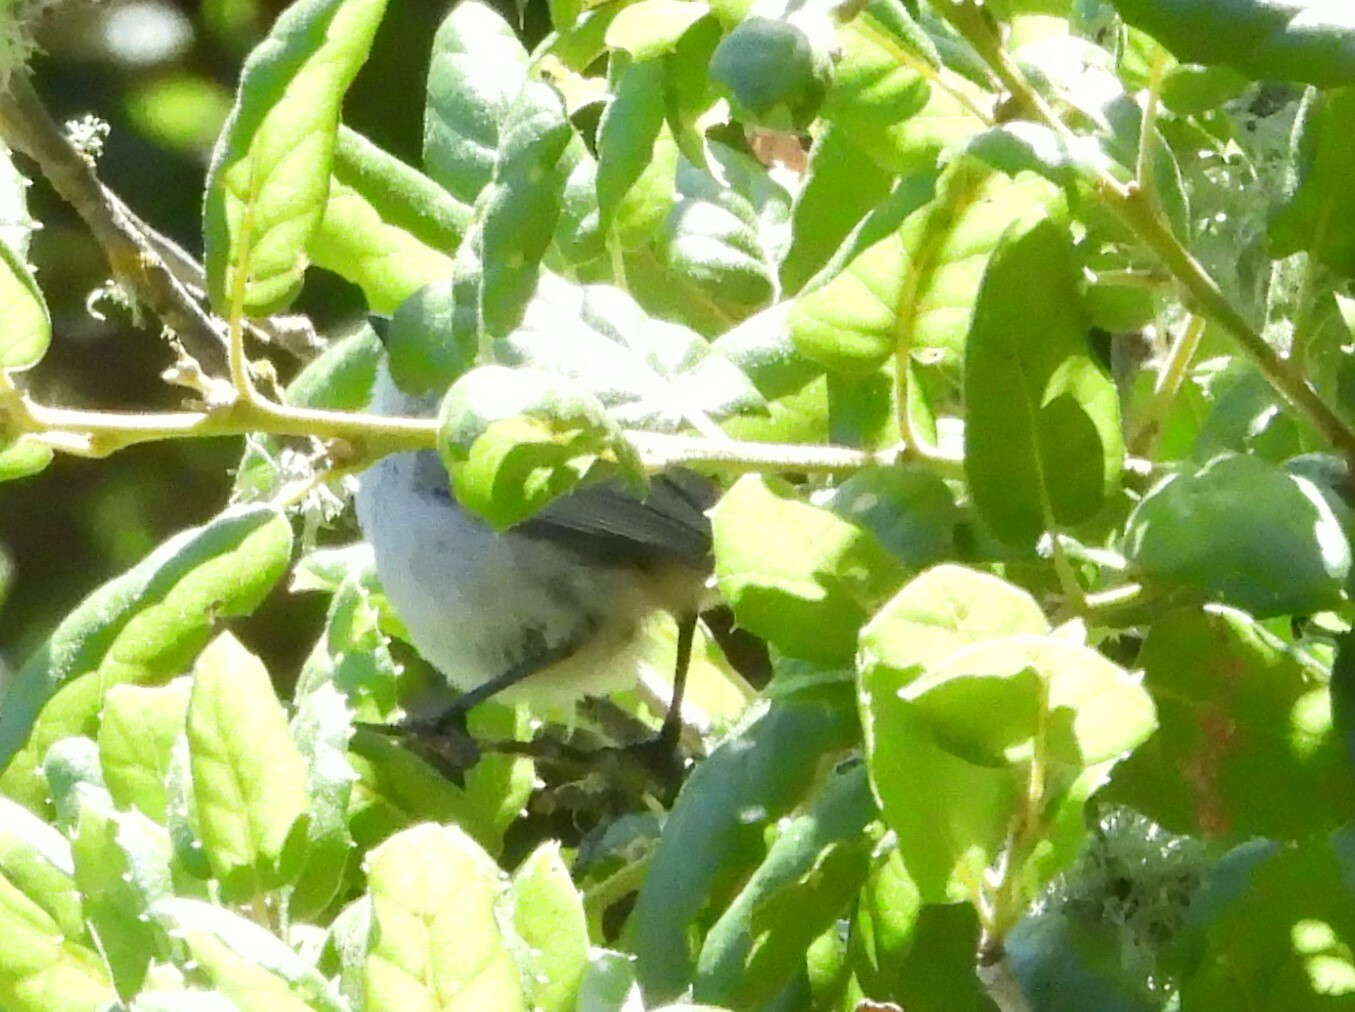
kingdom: Animalia
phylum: Chordata
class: Aves
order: Passeriformes
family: Aegithalidae
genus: Psaltriparus
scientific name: Psaltriparus minimus
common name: American bushtit
